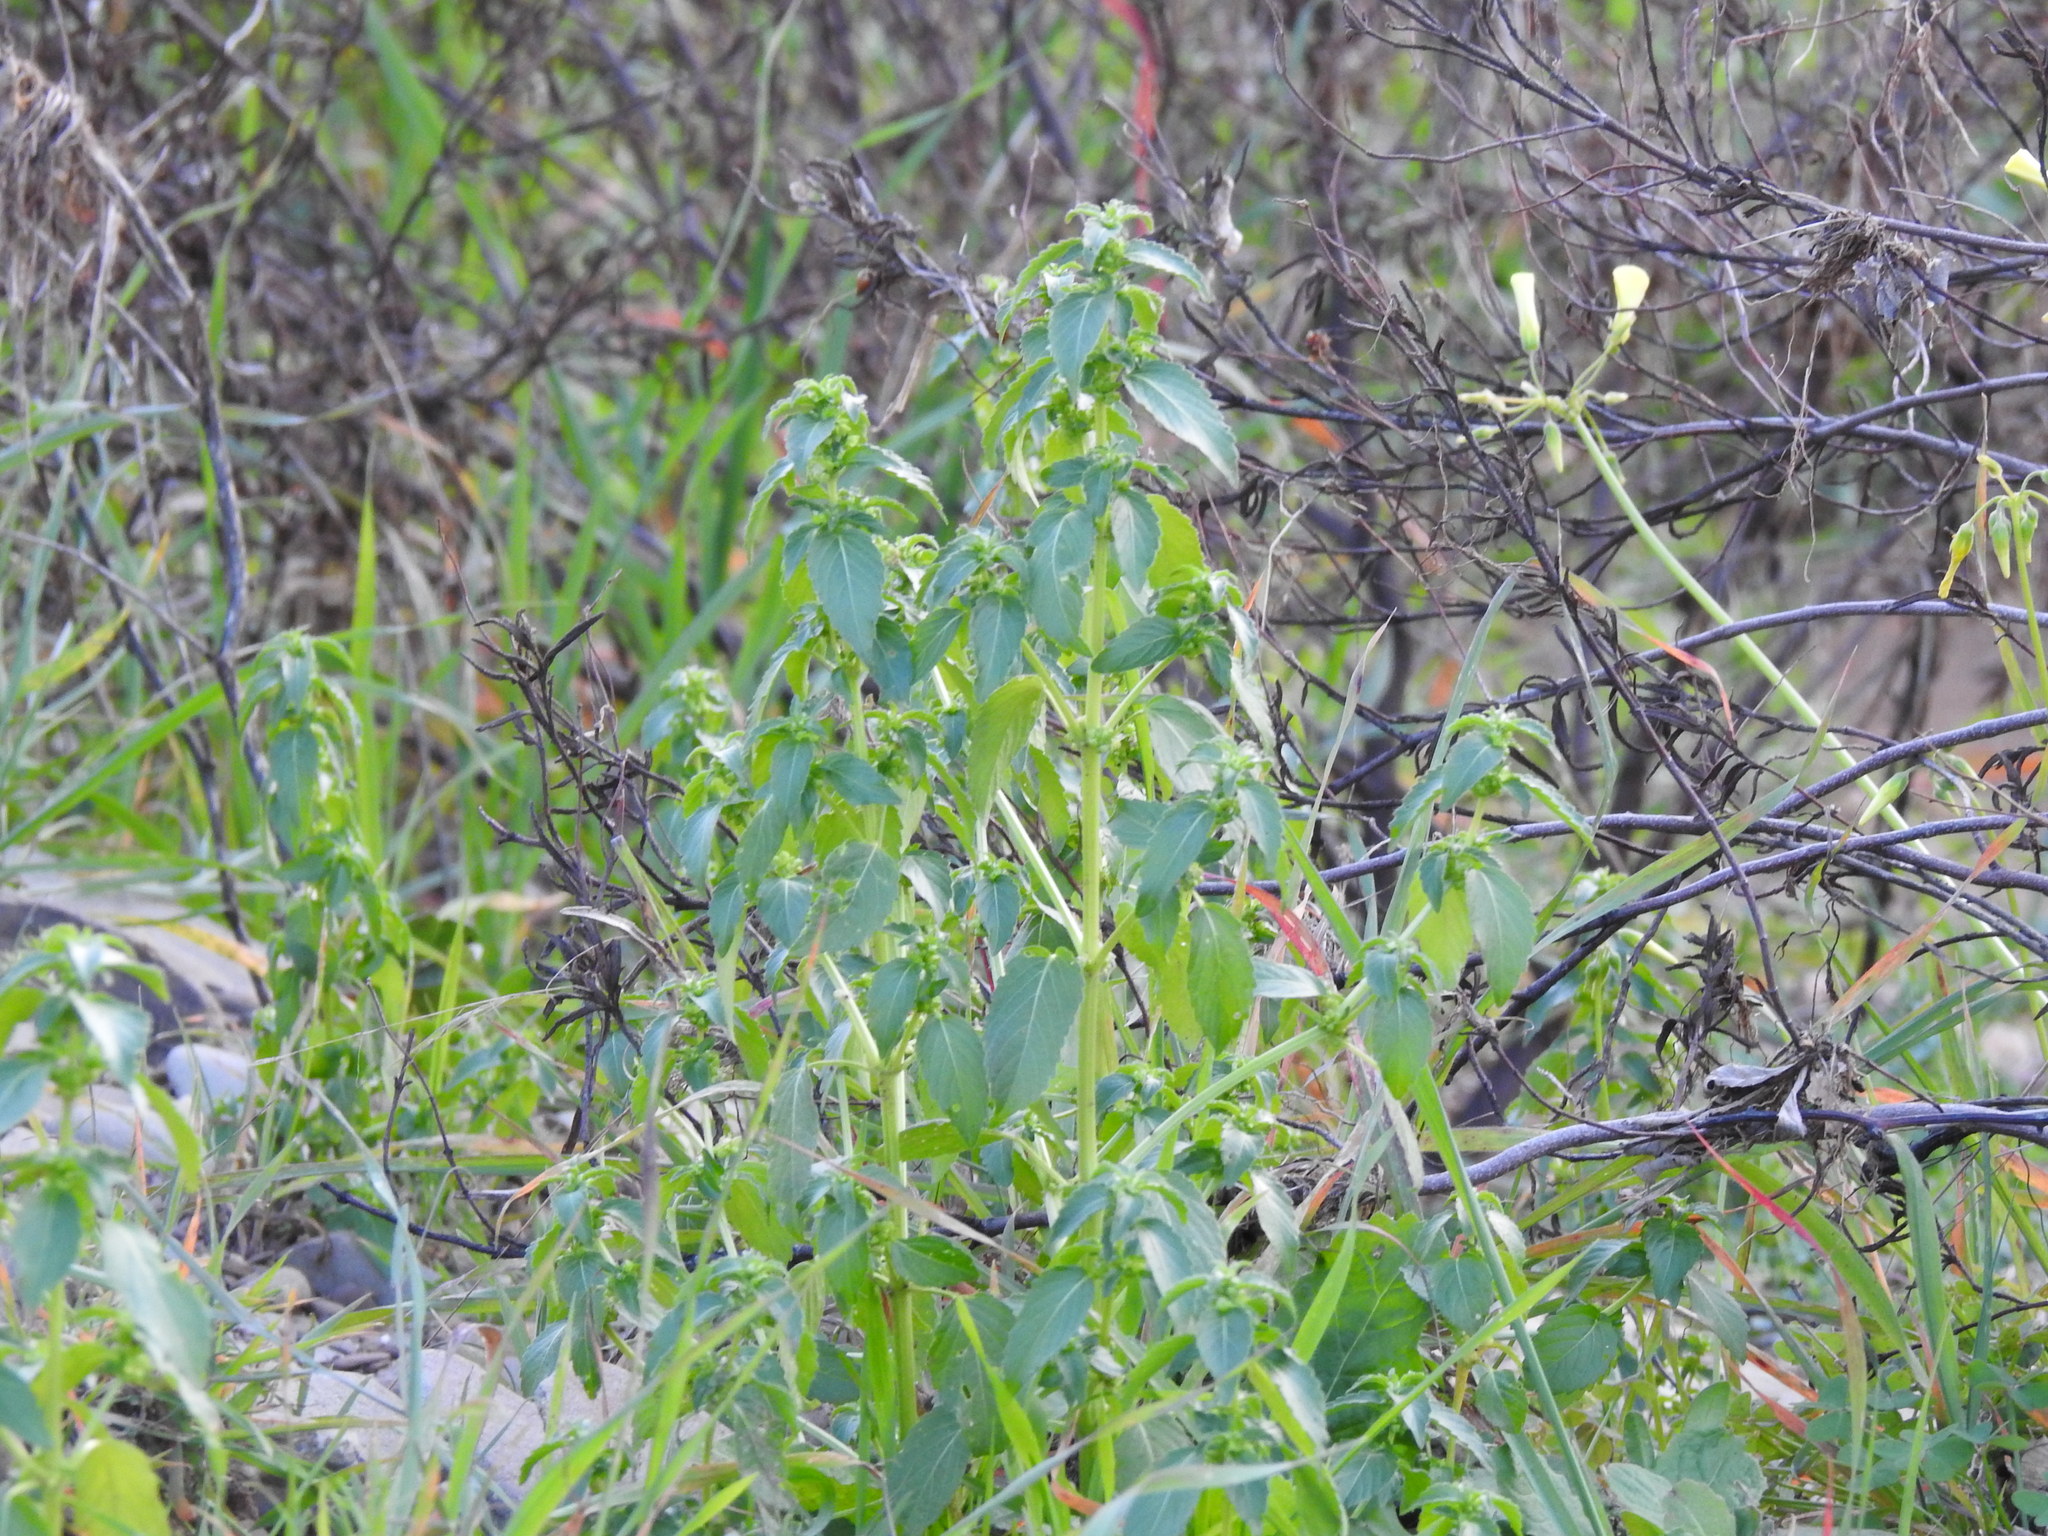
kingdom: Plantae
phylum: Tracheophyta
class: Magnoliopsida
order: Malpighiales
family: Euphorbiaceae
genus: Mercurialis
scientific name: Mercurialis annua
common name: Annual mercury
